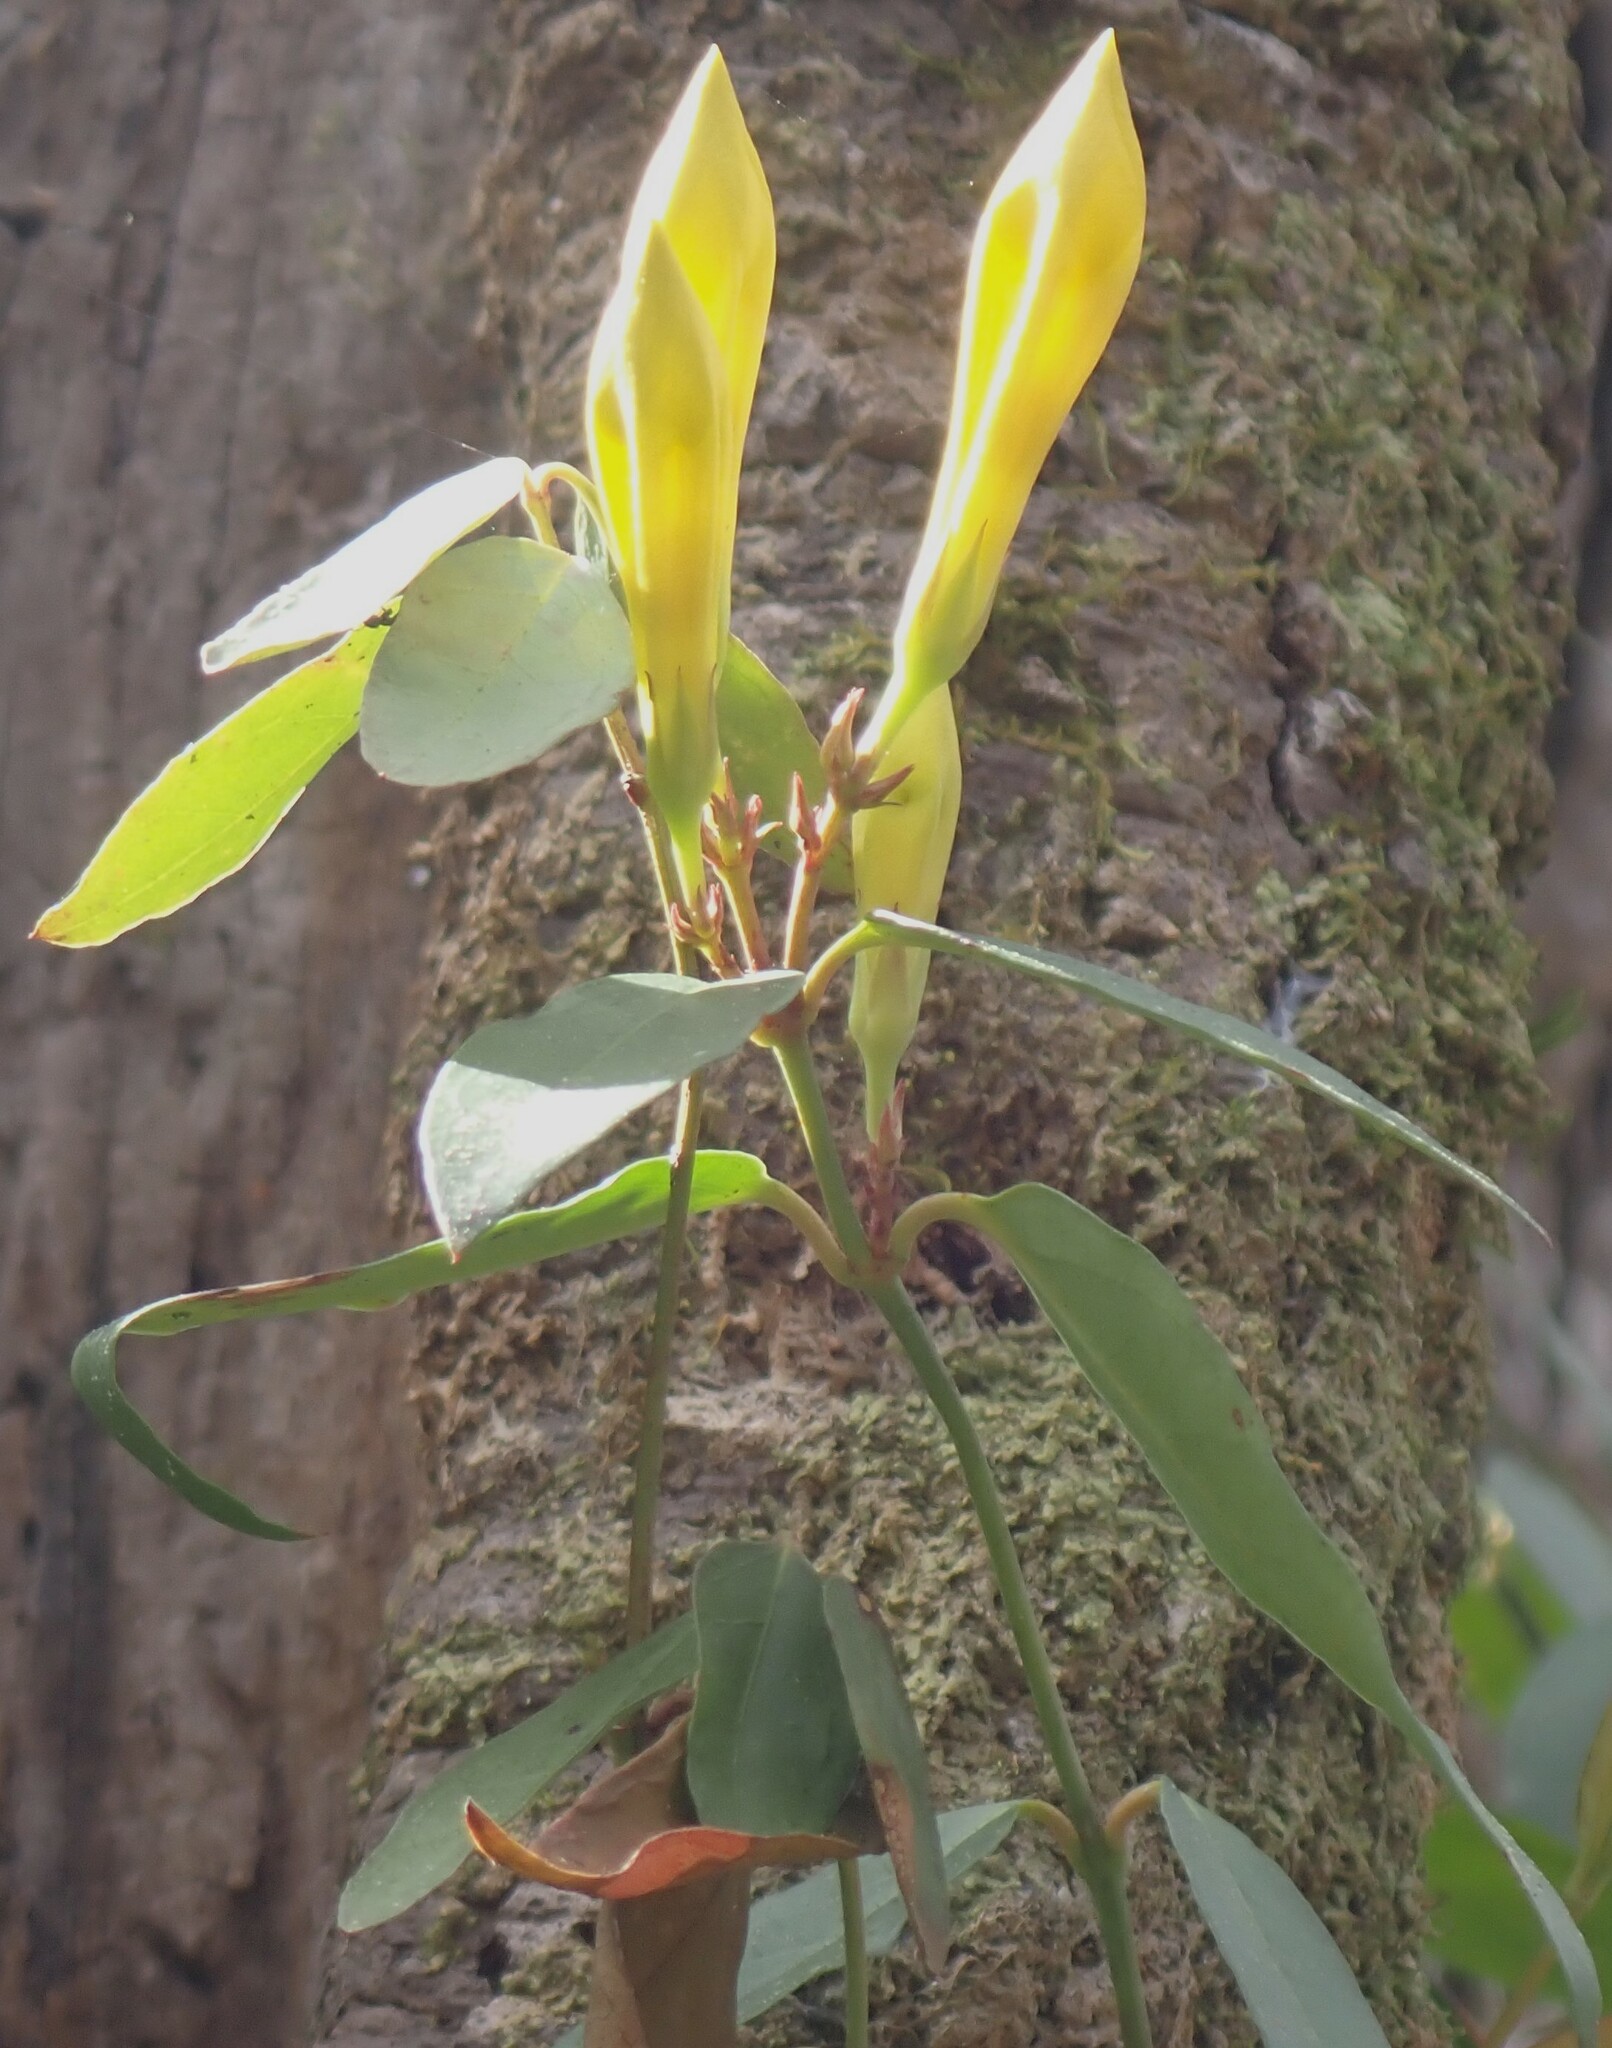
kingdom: Plantae
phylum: Tracheophyta
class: Magnoliopsida
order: Gentianales
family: Gelsemiaceae
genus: Gelsemium
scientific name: Gelsemium rankinii
